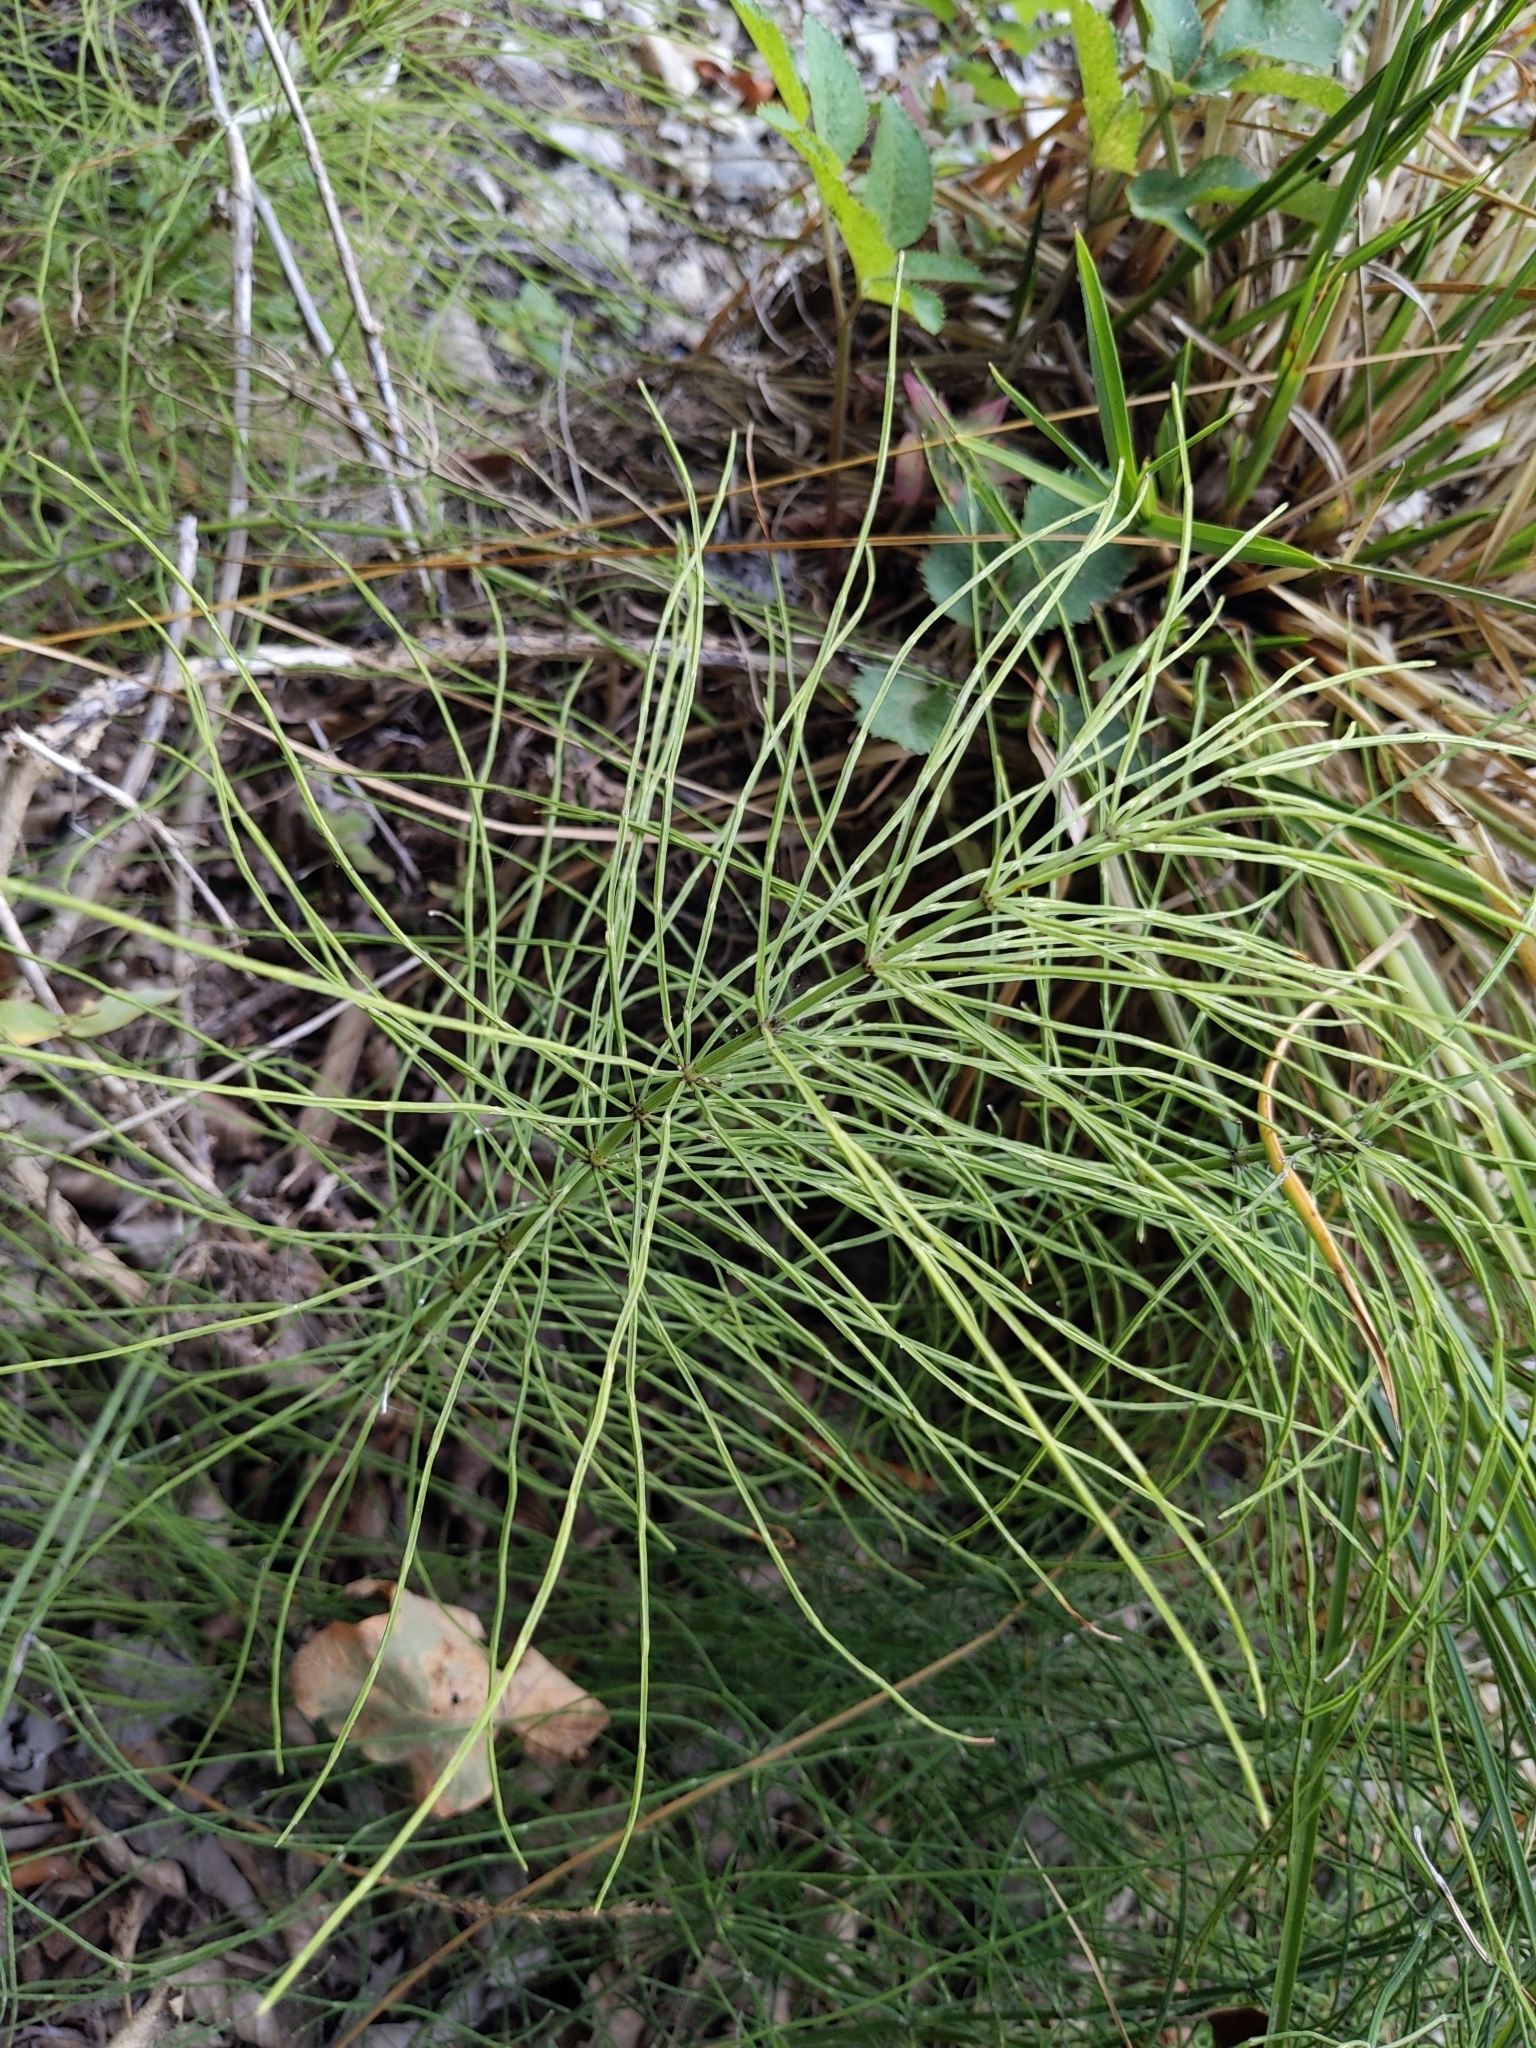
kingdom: Plantae
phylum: Tracheophyta
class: Polypodiopsida
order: Equisetales
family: Equisetaceae
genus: Equisetum
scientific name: Equisetum arvense
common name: Field horsetail
